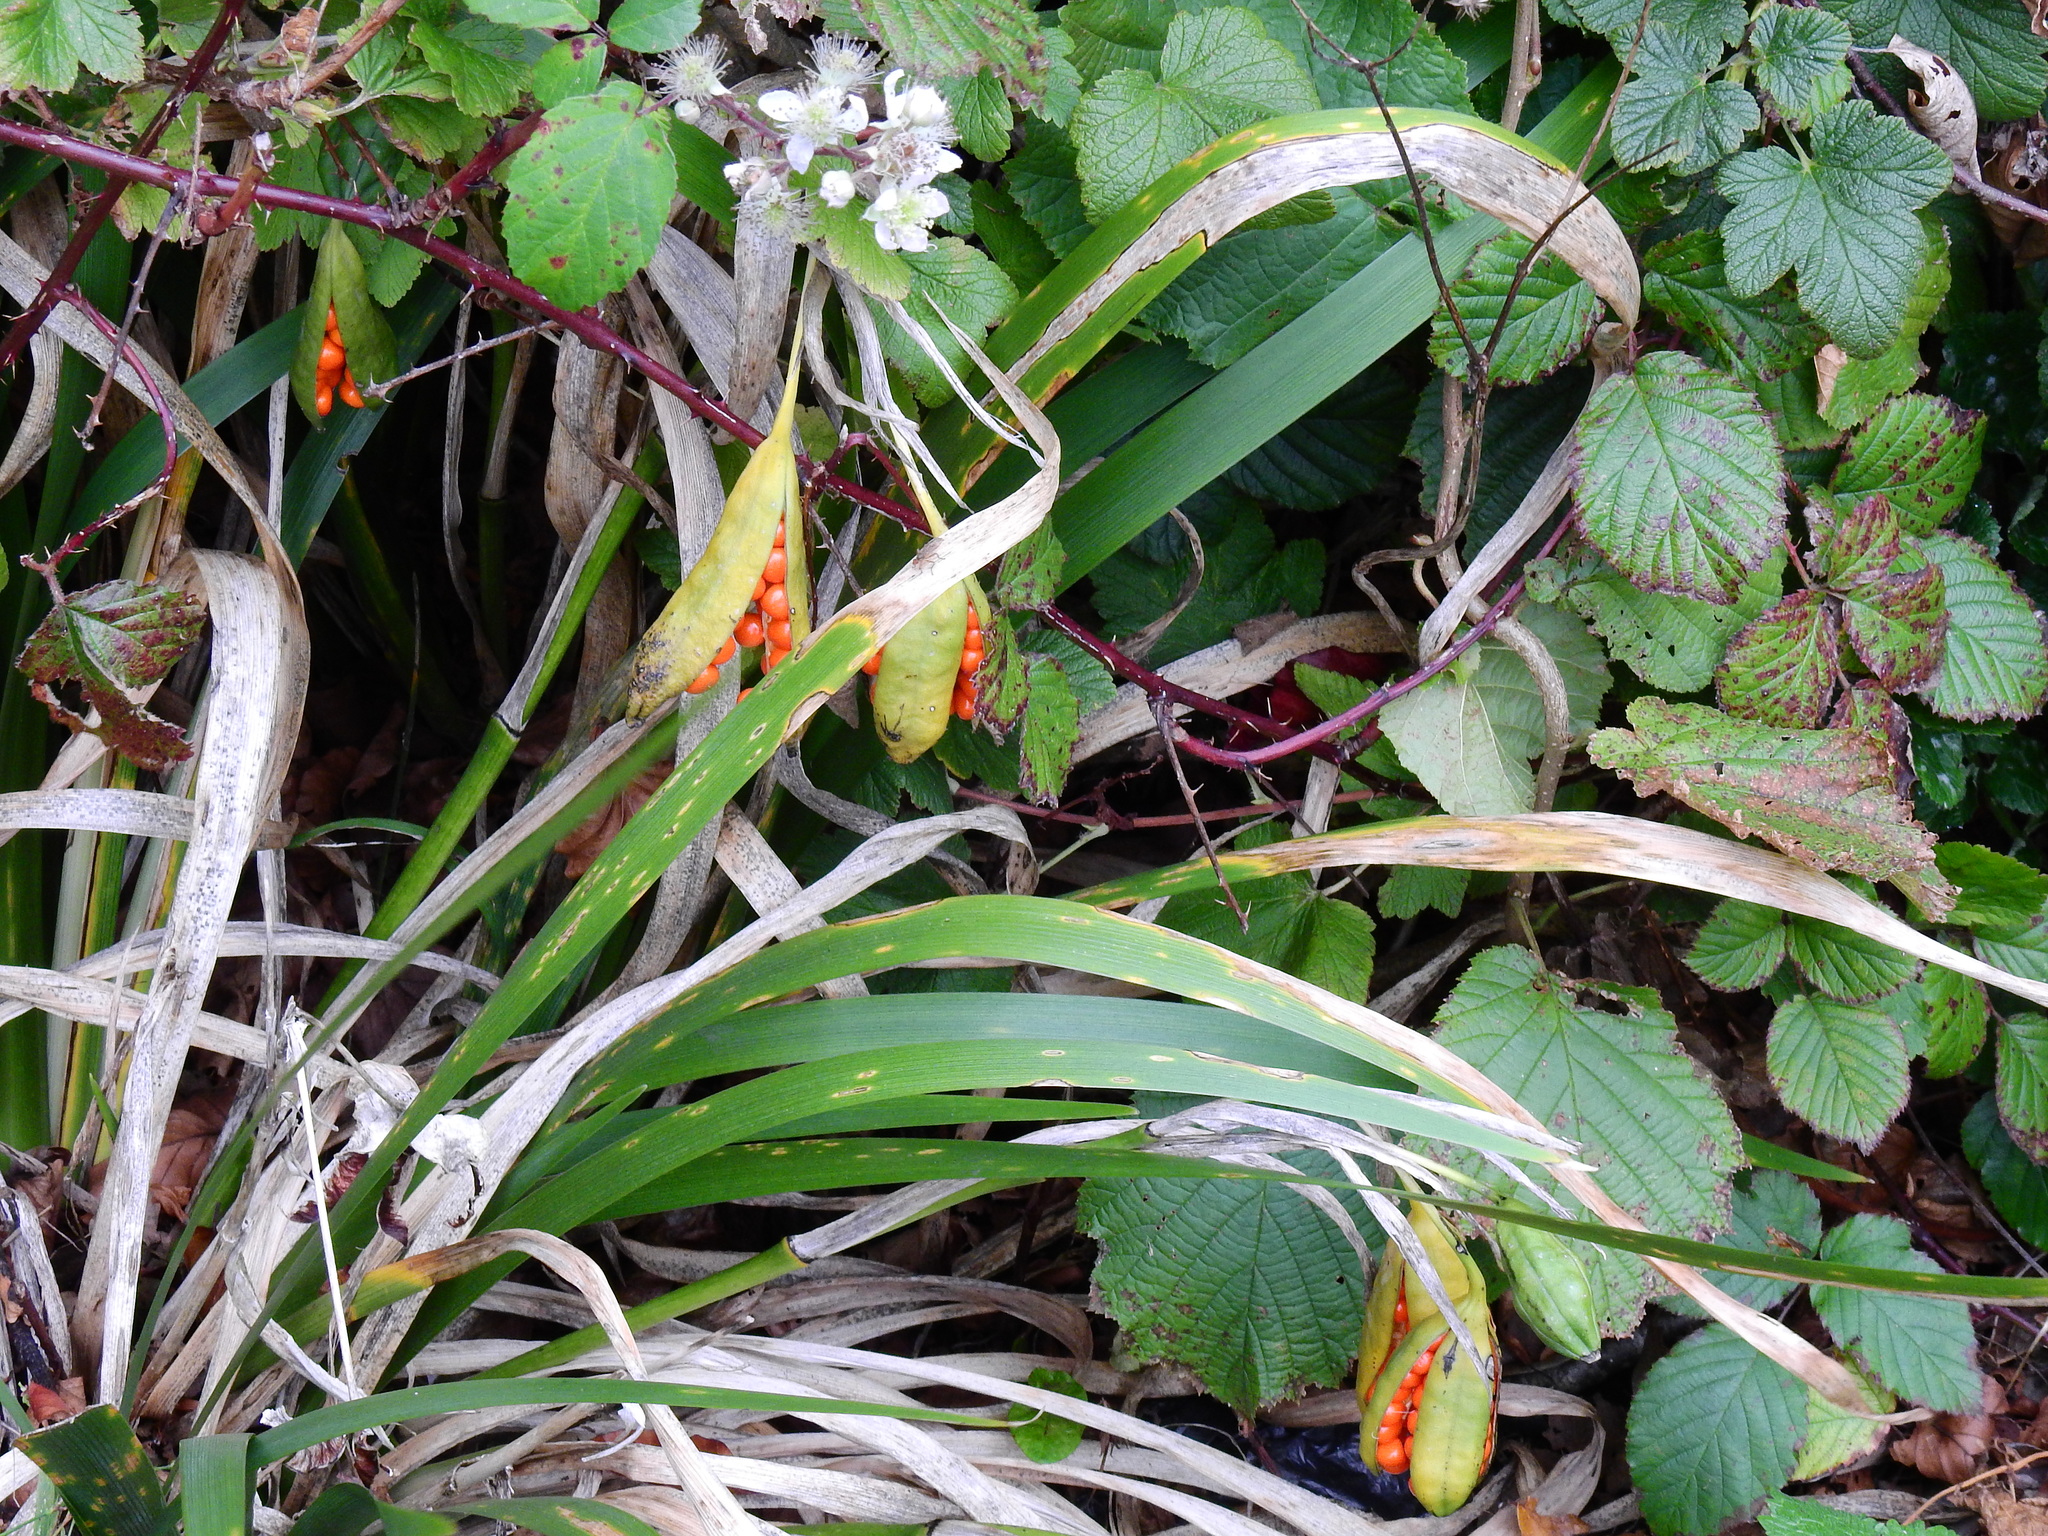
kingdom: Plantae
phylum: Tracheophyta
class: Liliopsida
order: Asparagales
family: Iridaceae
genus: Iris
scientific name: Iris foetidissima
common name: Stinking iris
